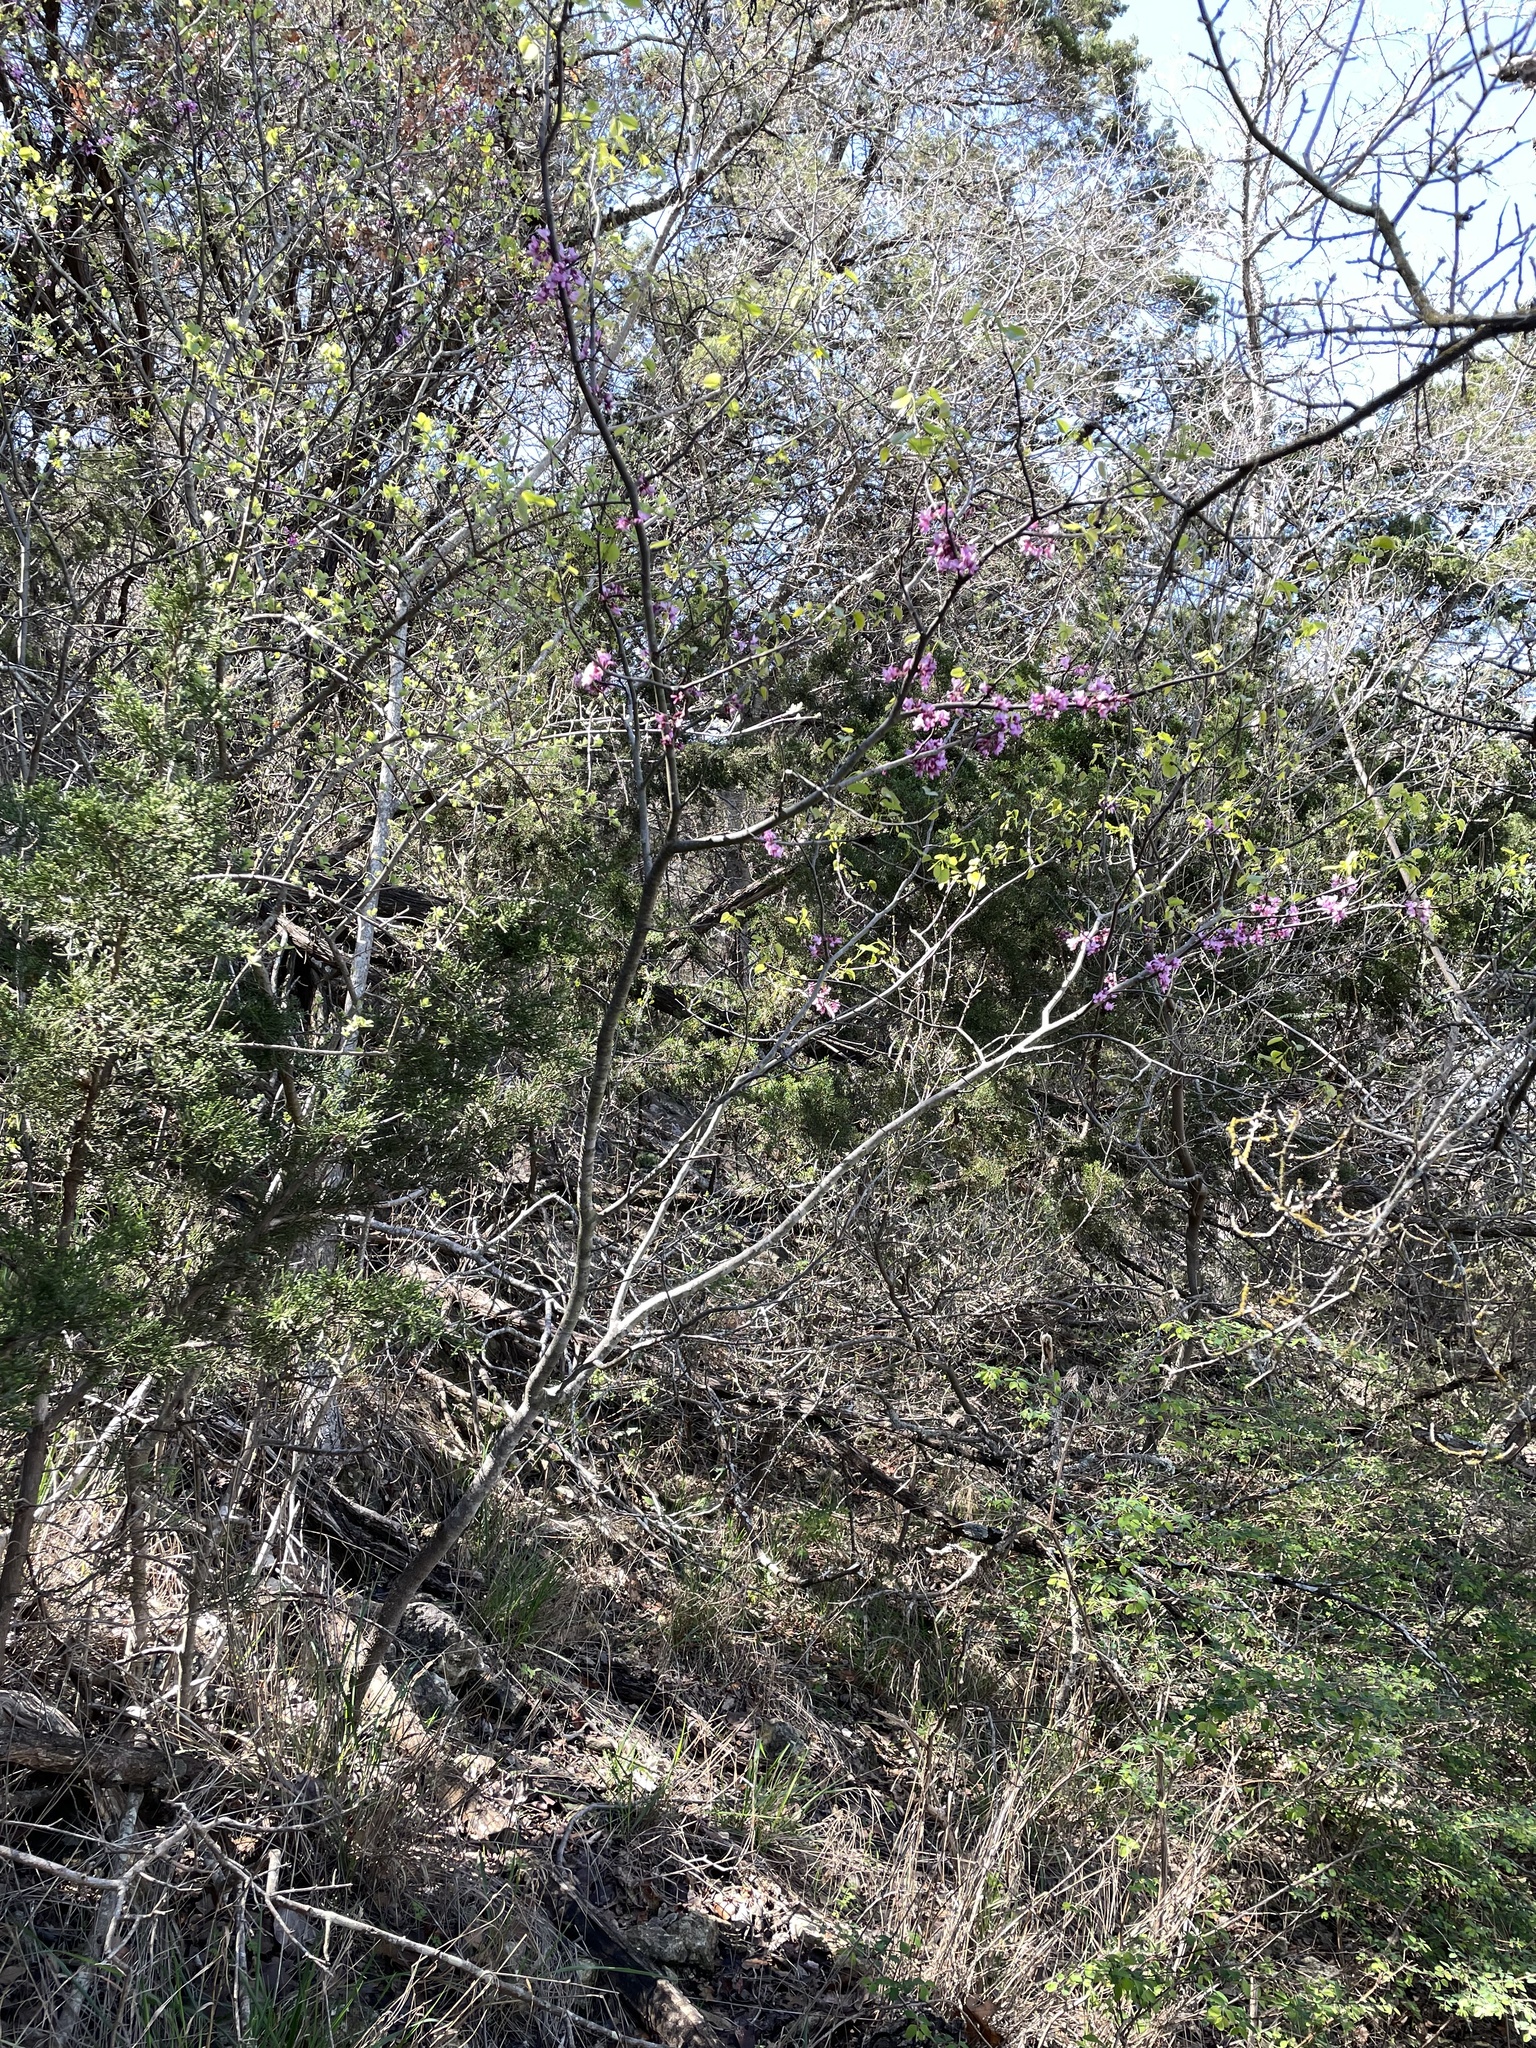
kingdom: Plantae
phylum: Tracheophyta
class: Magnoliopsida
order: Fabales
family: Fabaceae
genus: Cercis
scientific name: Cercis canadensis
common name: Eastern redbud
